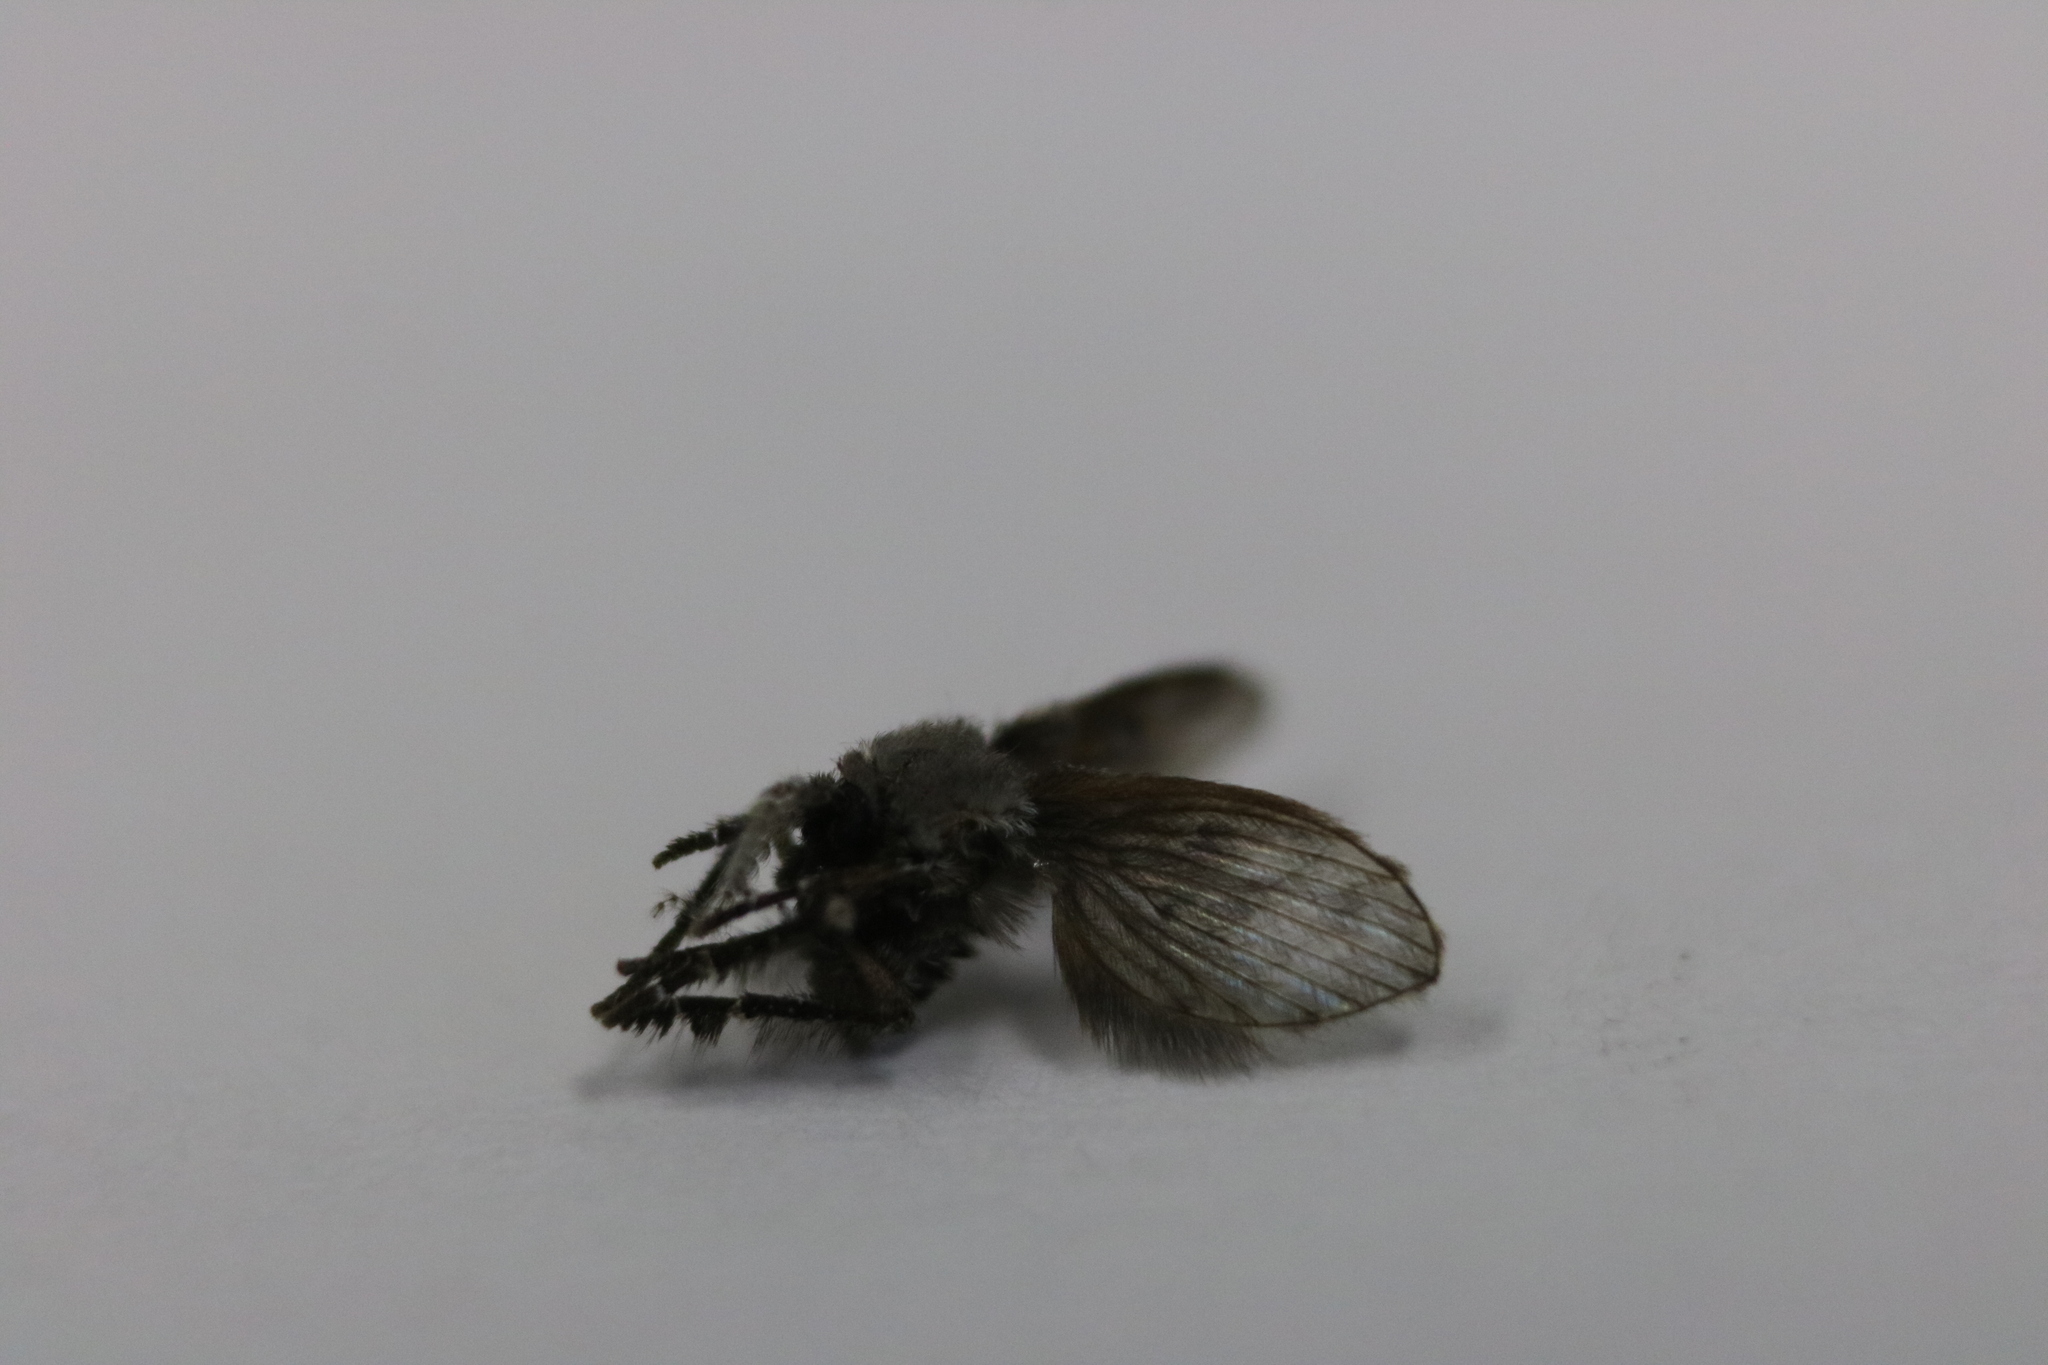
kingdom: Animalia
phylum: Arthropoda
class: Insecta
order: Diptera
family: Psychodidae
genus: Clogmia
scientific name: Clogmia albipunctatus
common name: White-spotted moth fly
